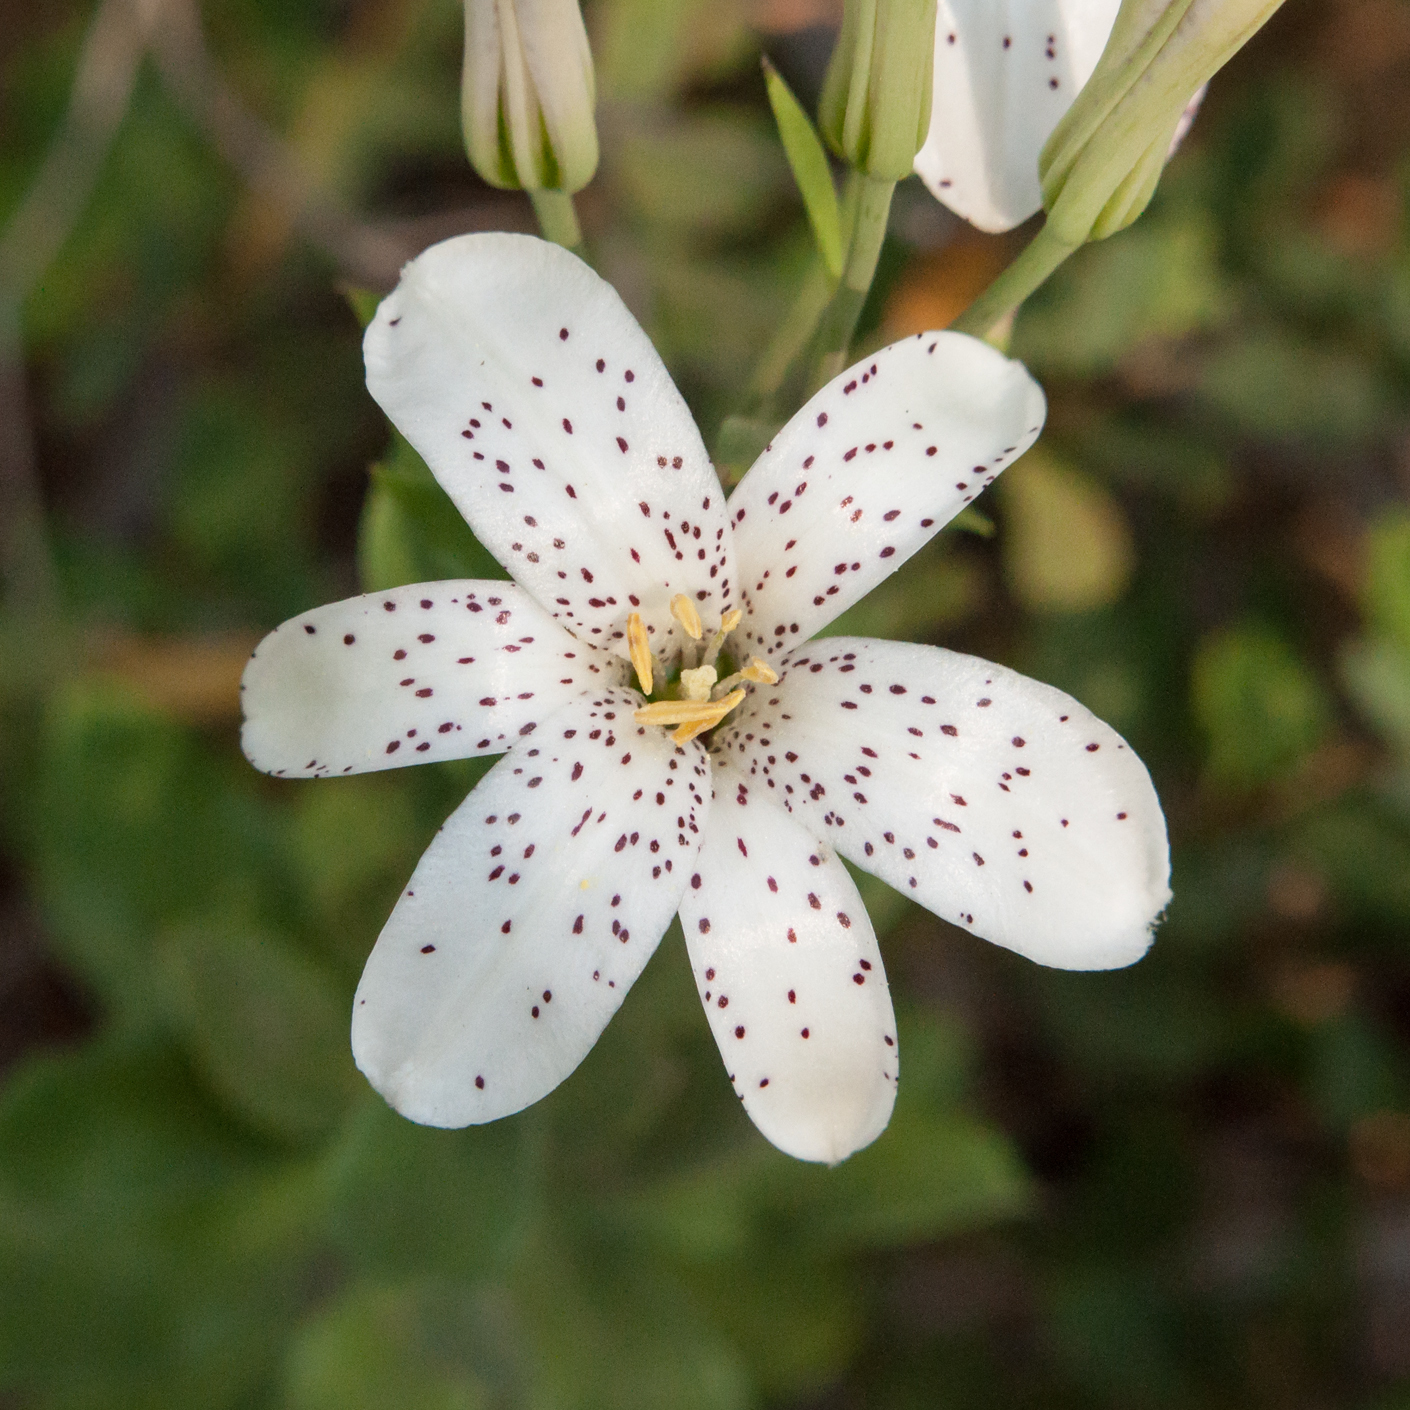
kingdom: Plantae
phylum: Tracheophyta
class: Liliopsida
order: Liliales
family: Liliaceae
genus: Lilium
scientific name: Lilium rubescens
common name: Chamise lily
